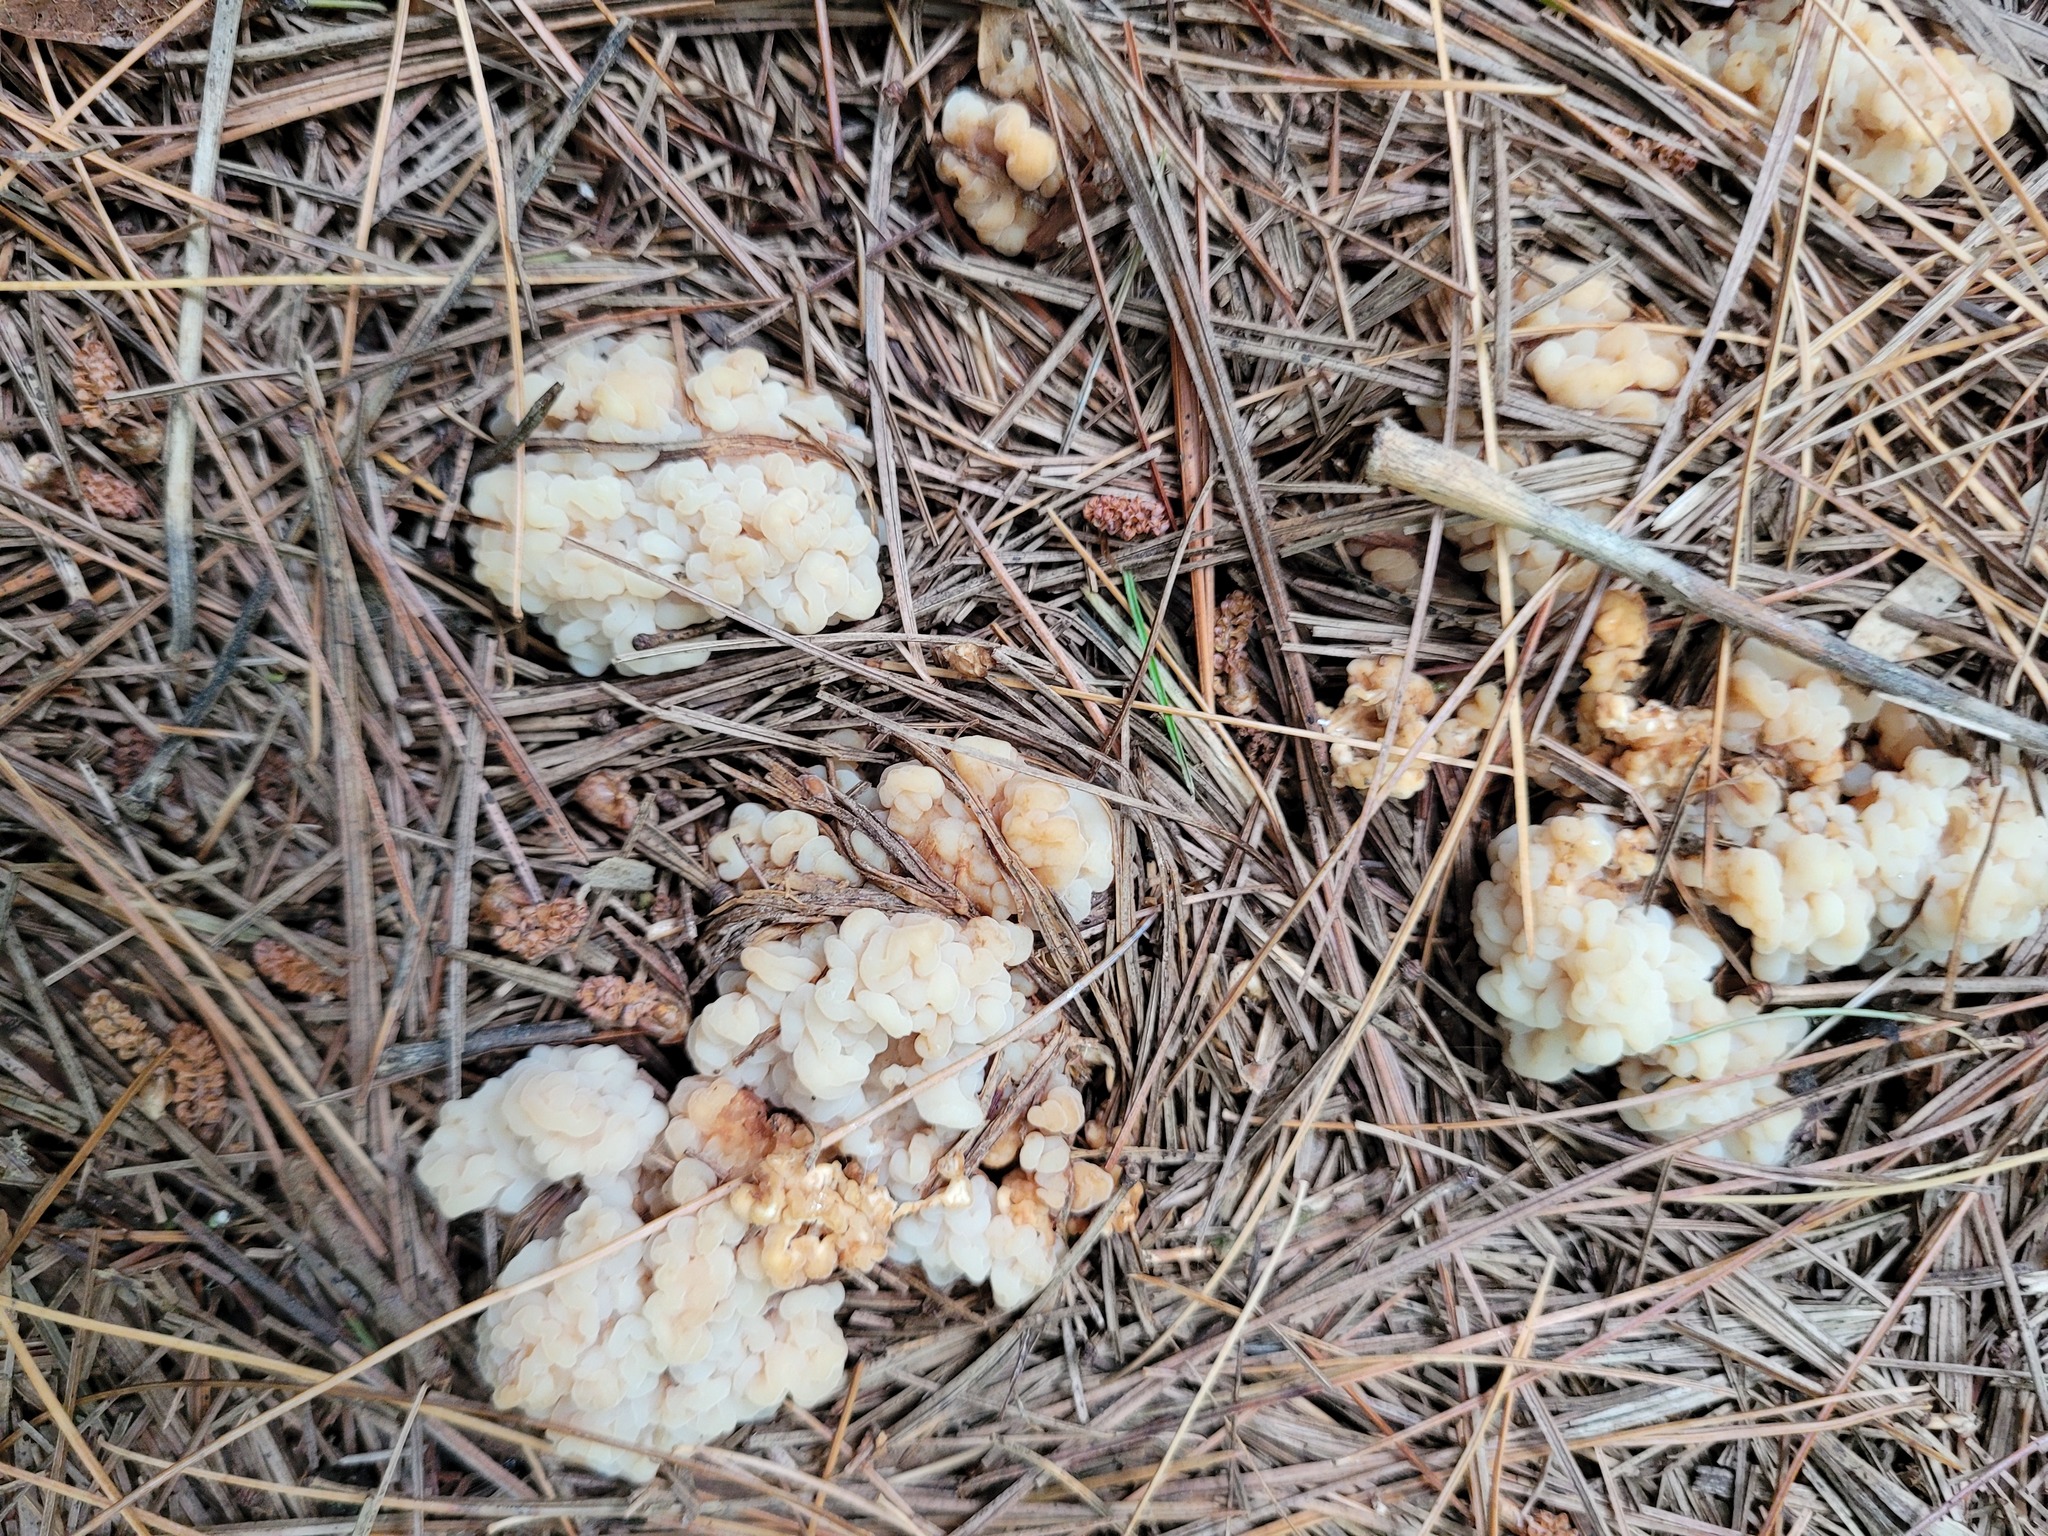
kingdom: Fungi
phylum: Basidiomycota
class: Tremellomycetes
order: Filobasidiales
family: Filobasidiaceae
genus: Syzygospora
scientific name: Syzygospora mycetophila
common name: Collybia clouds
